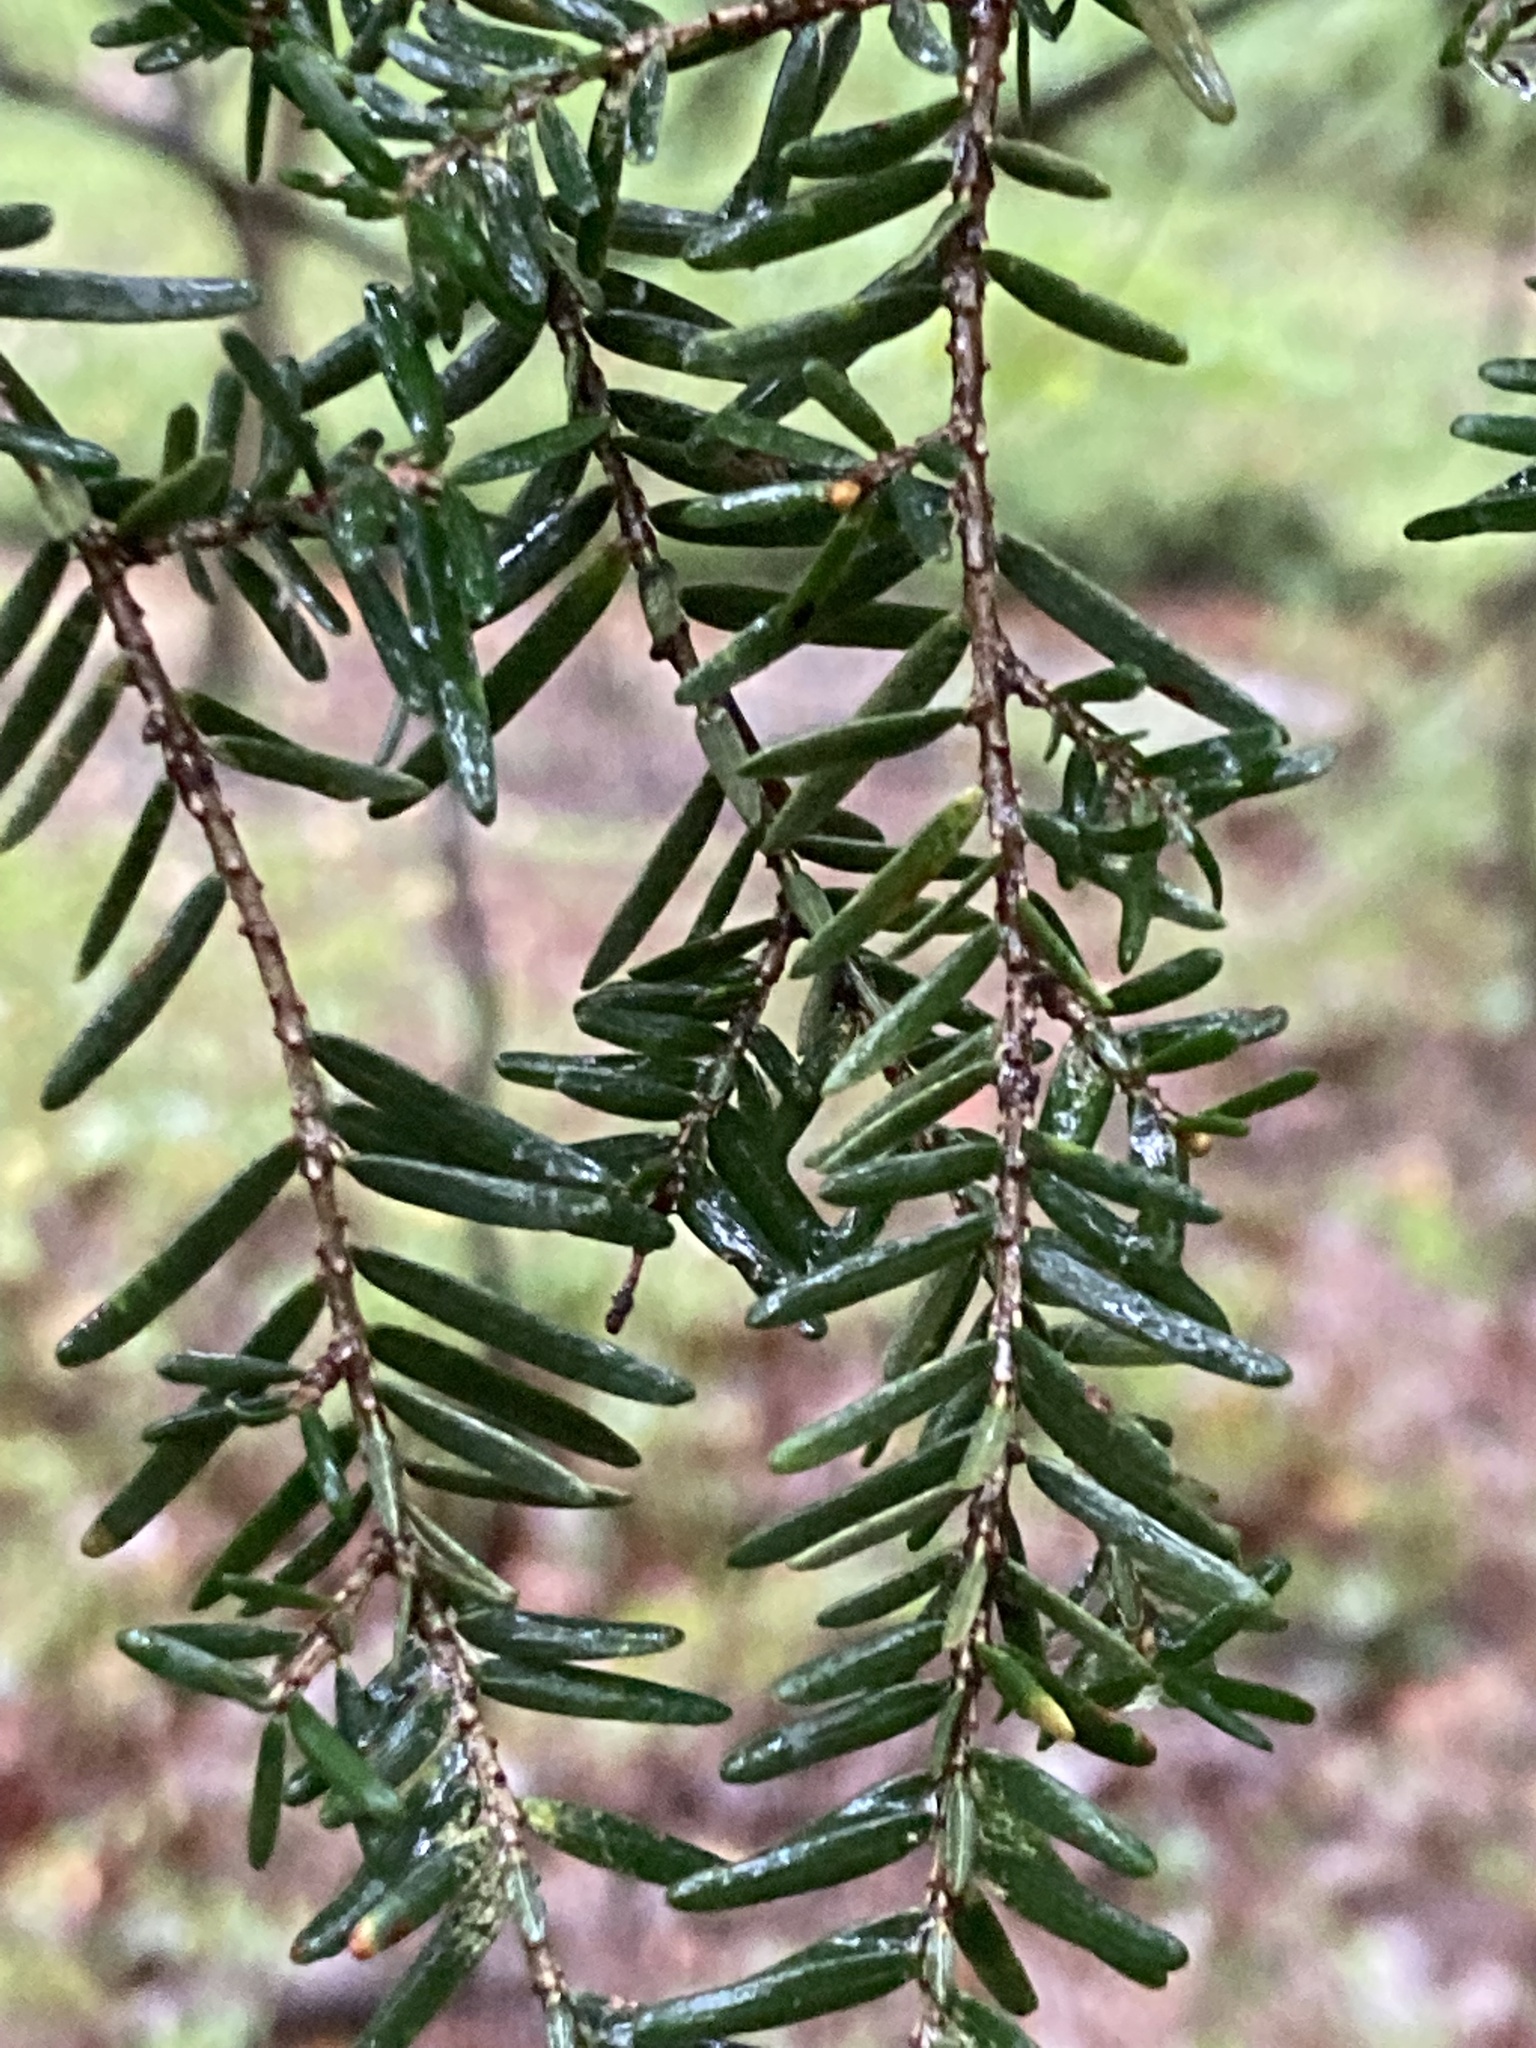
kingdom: Plantae
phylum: Tracheophyta
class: Pinopsida
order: Pinales
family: Pinaceae
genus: Tsuga
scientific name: Tsuga canadensis
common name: Eastern hemlock
